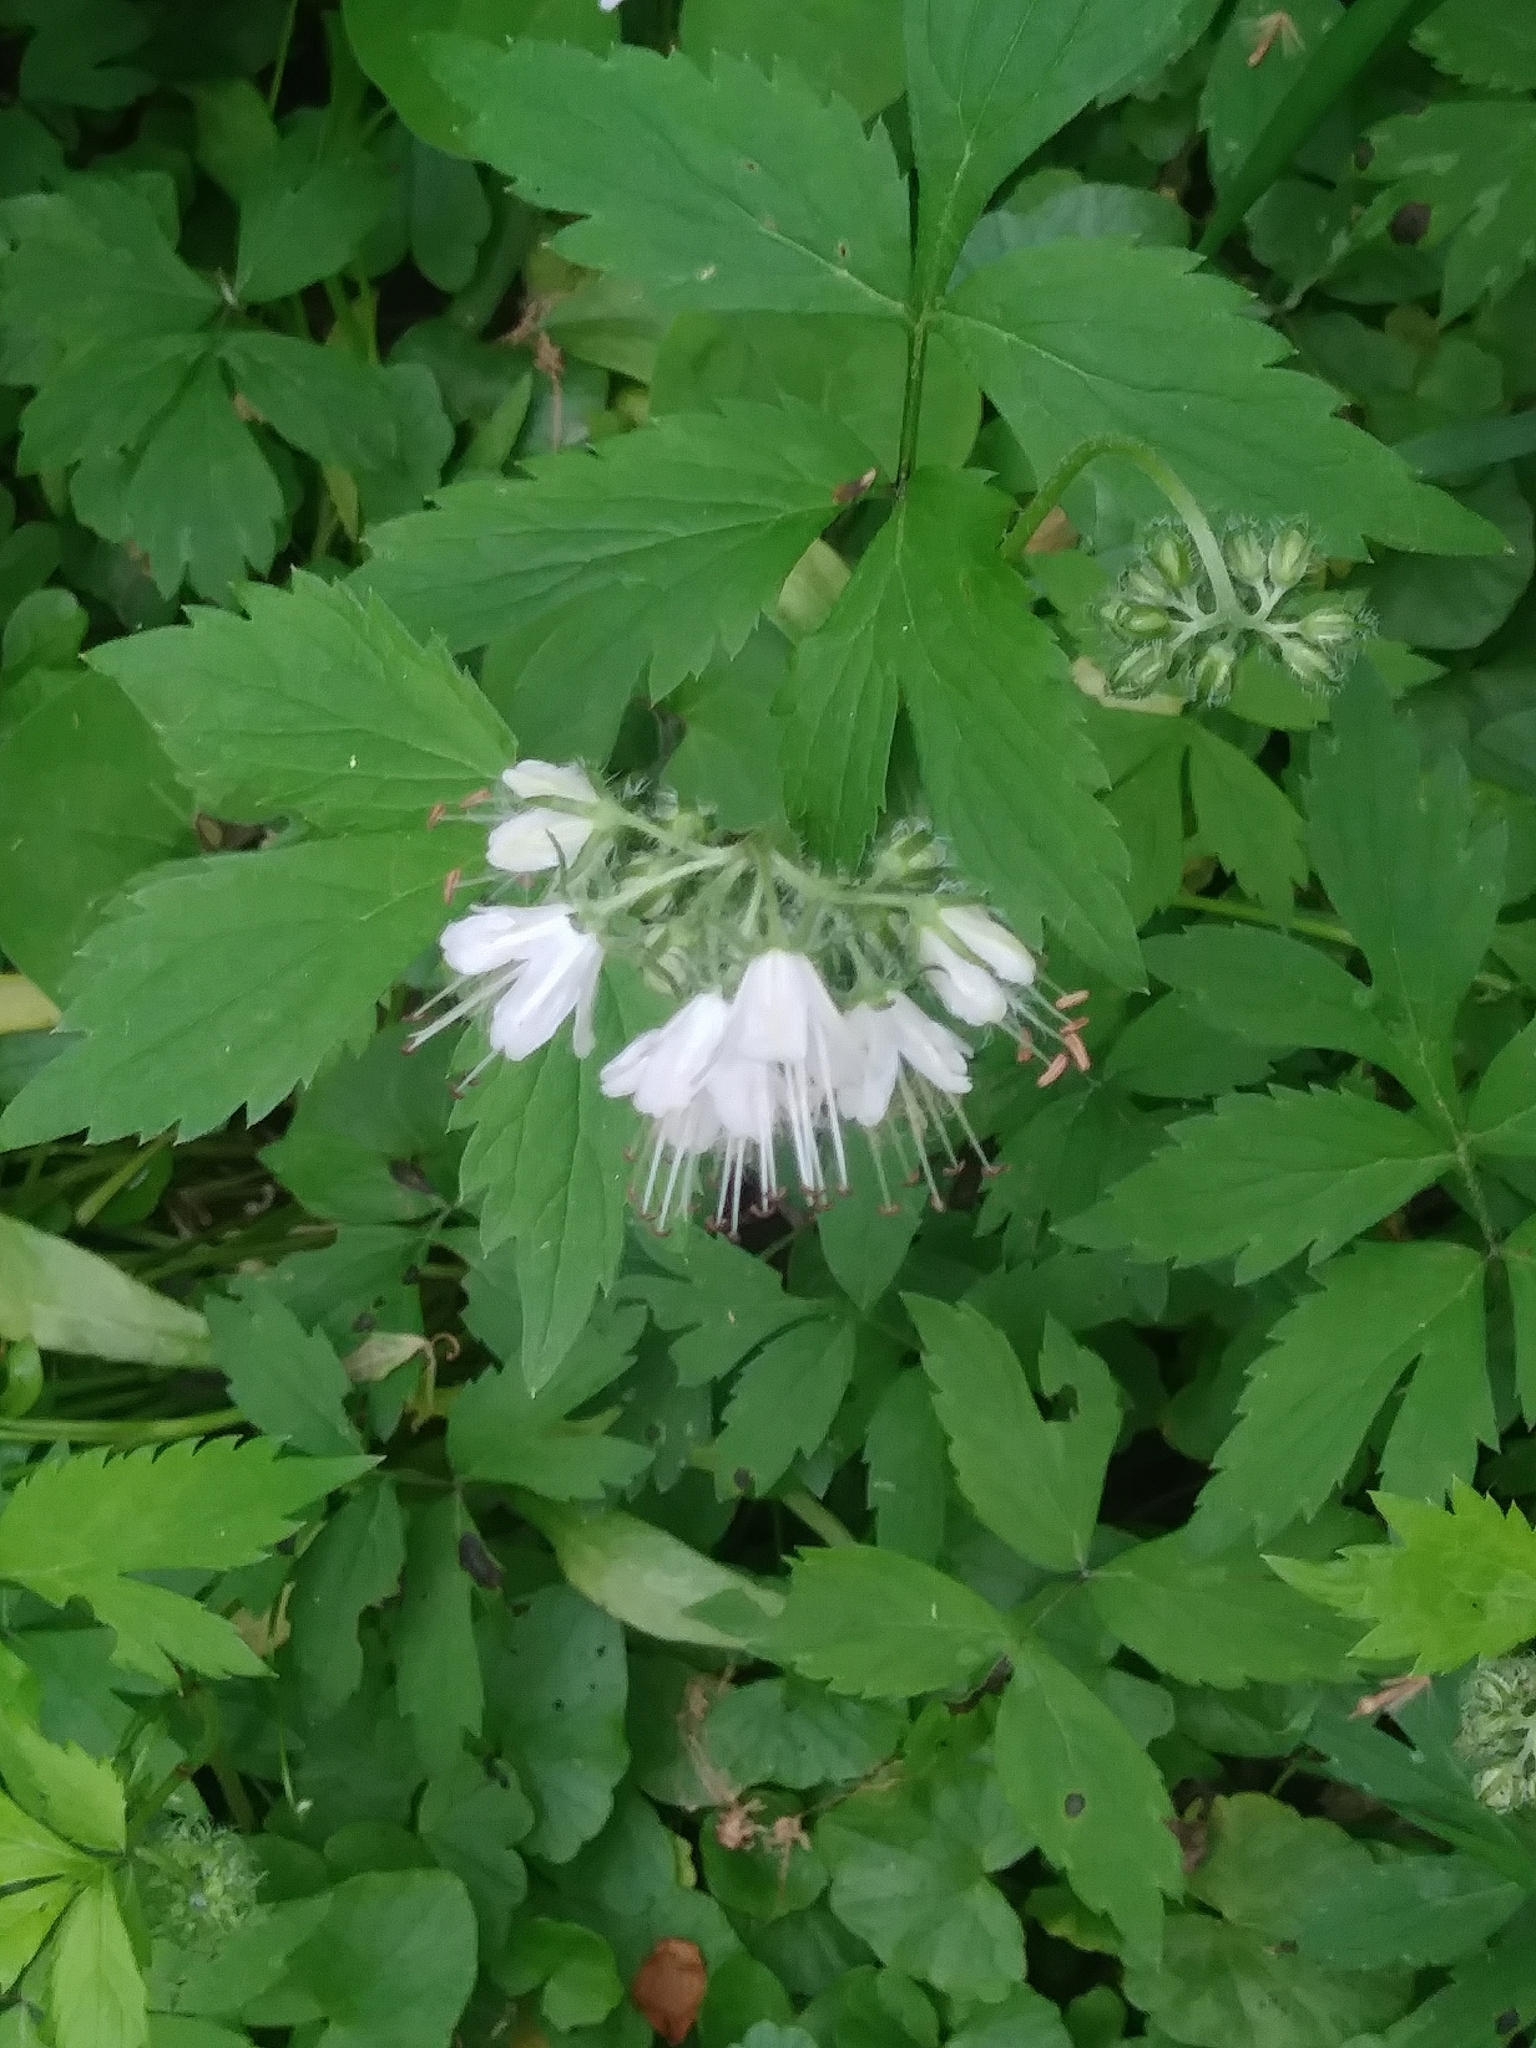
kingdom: Plantae
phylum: Tracheophyta
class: Magnoliopsida
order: Boraginales
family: Hydrophyllaceae
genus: Hydrophyllum
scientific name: Hydrophyllum virginianum
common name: Virginia waterleaf
